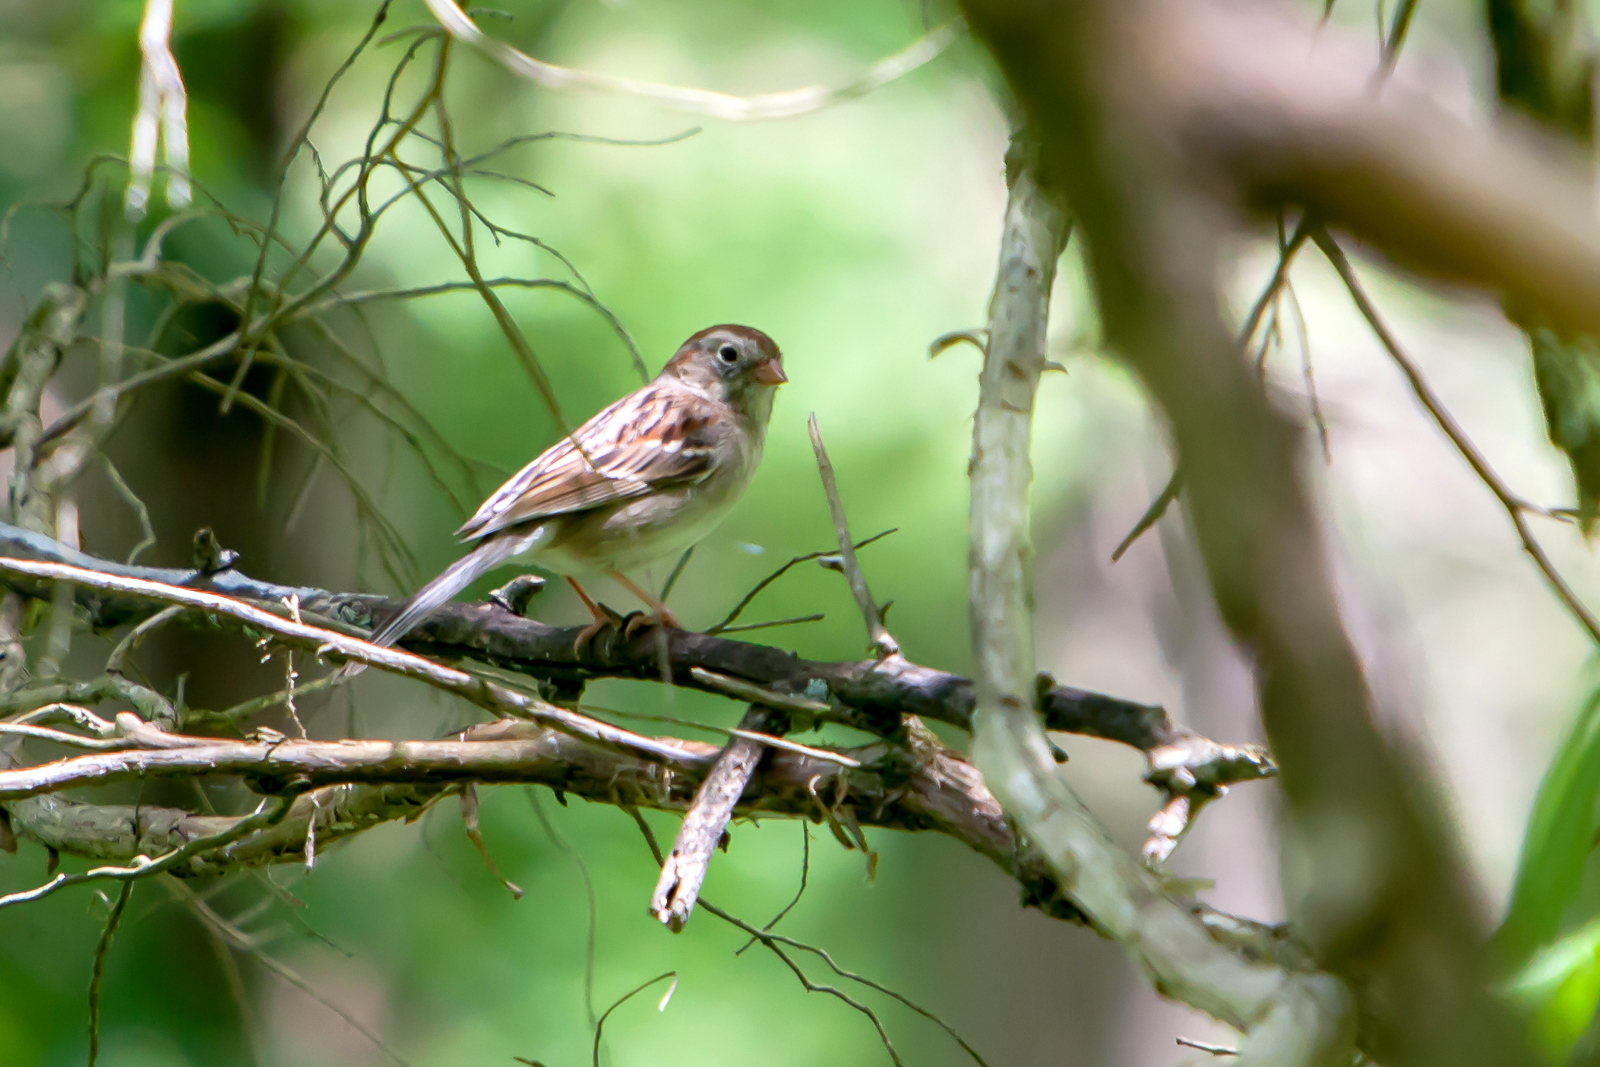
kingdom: Animalia
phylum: Chordata
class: Aves
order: Passeriformes
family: Passerellidae
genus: Spizella
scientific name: Spizella pusilla
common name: Field sparrow
